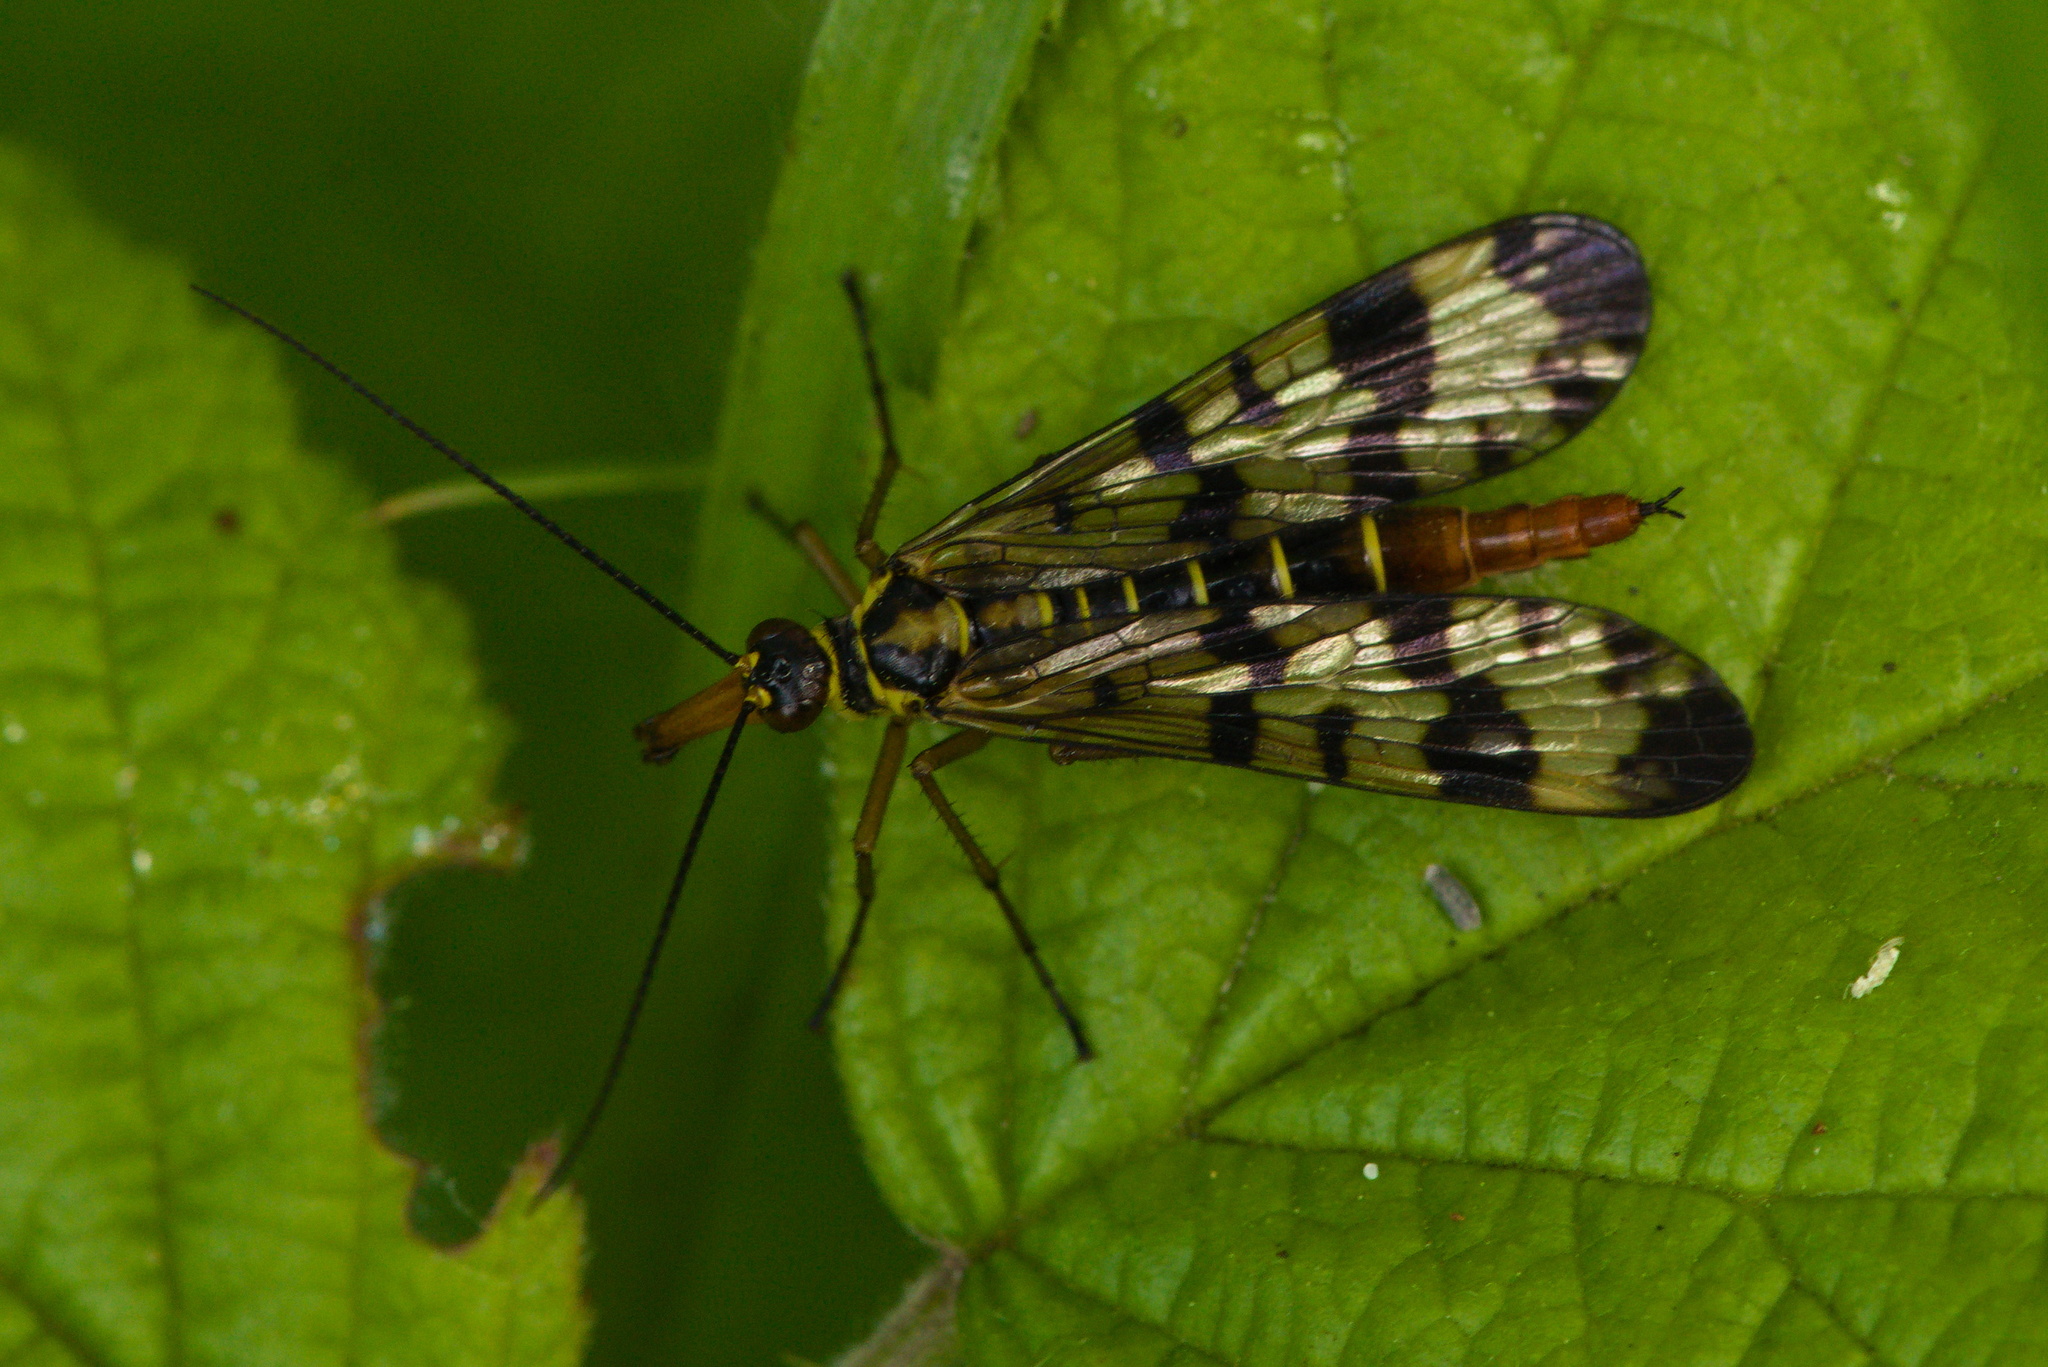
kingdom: Animalia
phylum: Arthropoda
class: Insecta
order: Mecoptera
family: Panorpidae
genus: Panorpa
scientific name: Panorpa communis
